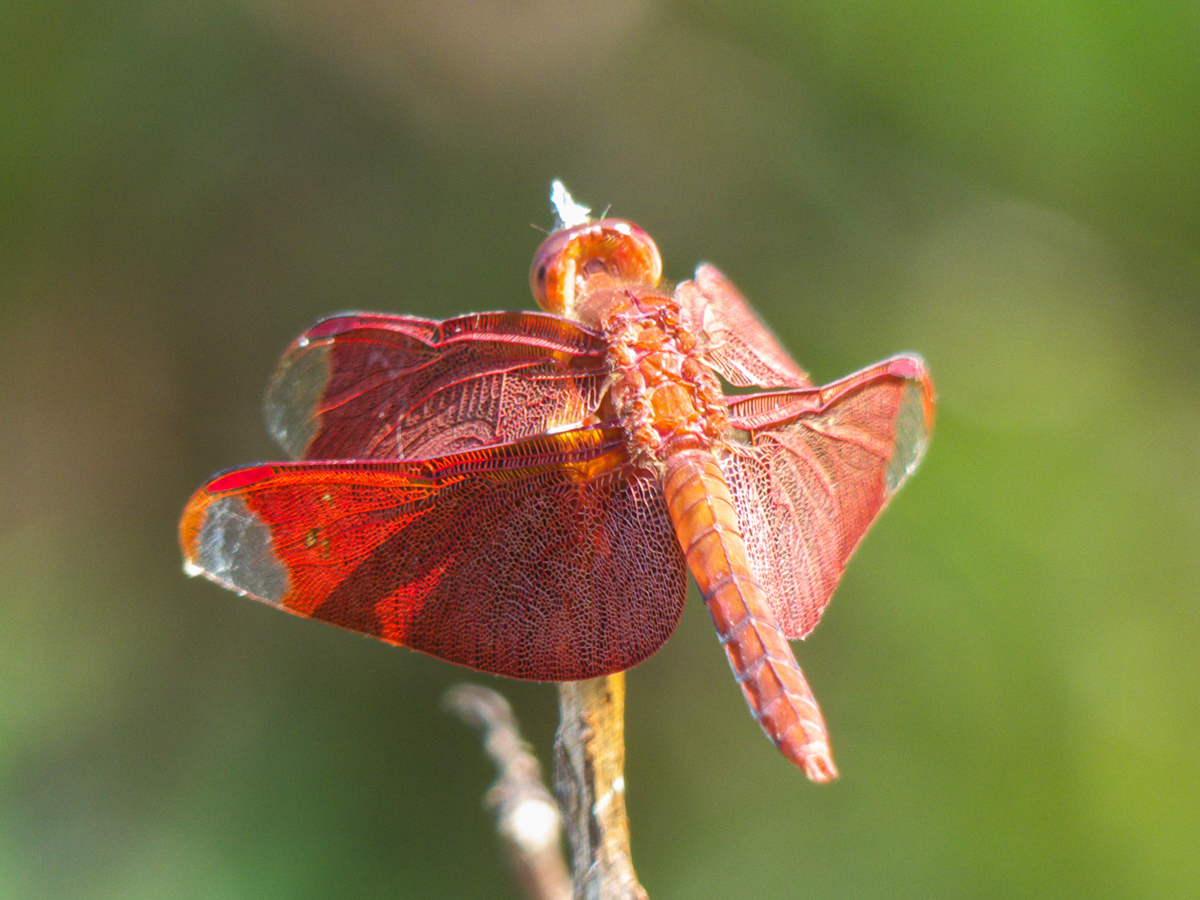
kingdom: Animalia
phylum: Arthropoda
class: Insecta
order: Odonata
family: Libellulidae
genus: Neurothemis
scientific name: Neurothemis fulvia
